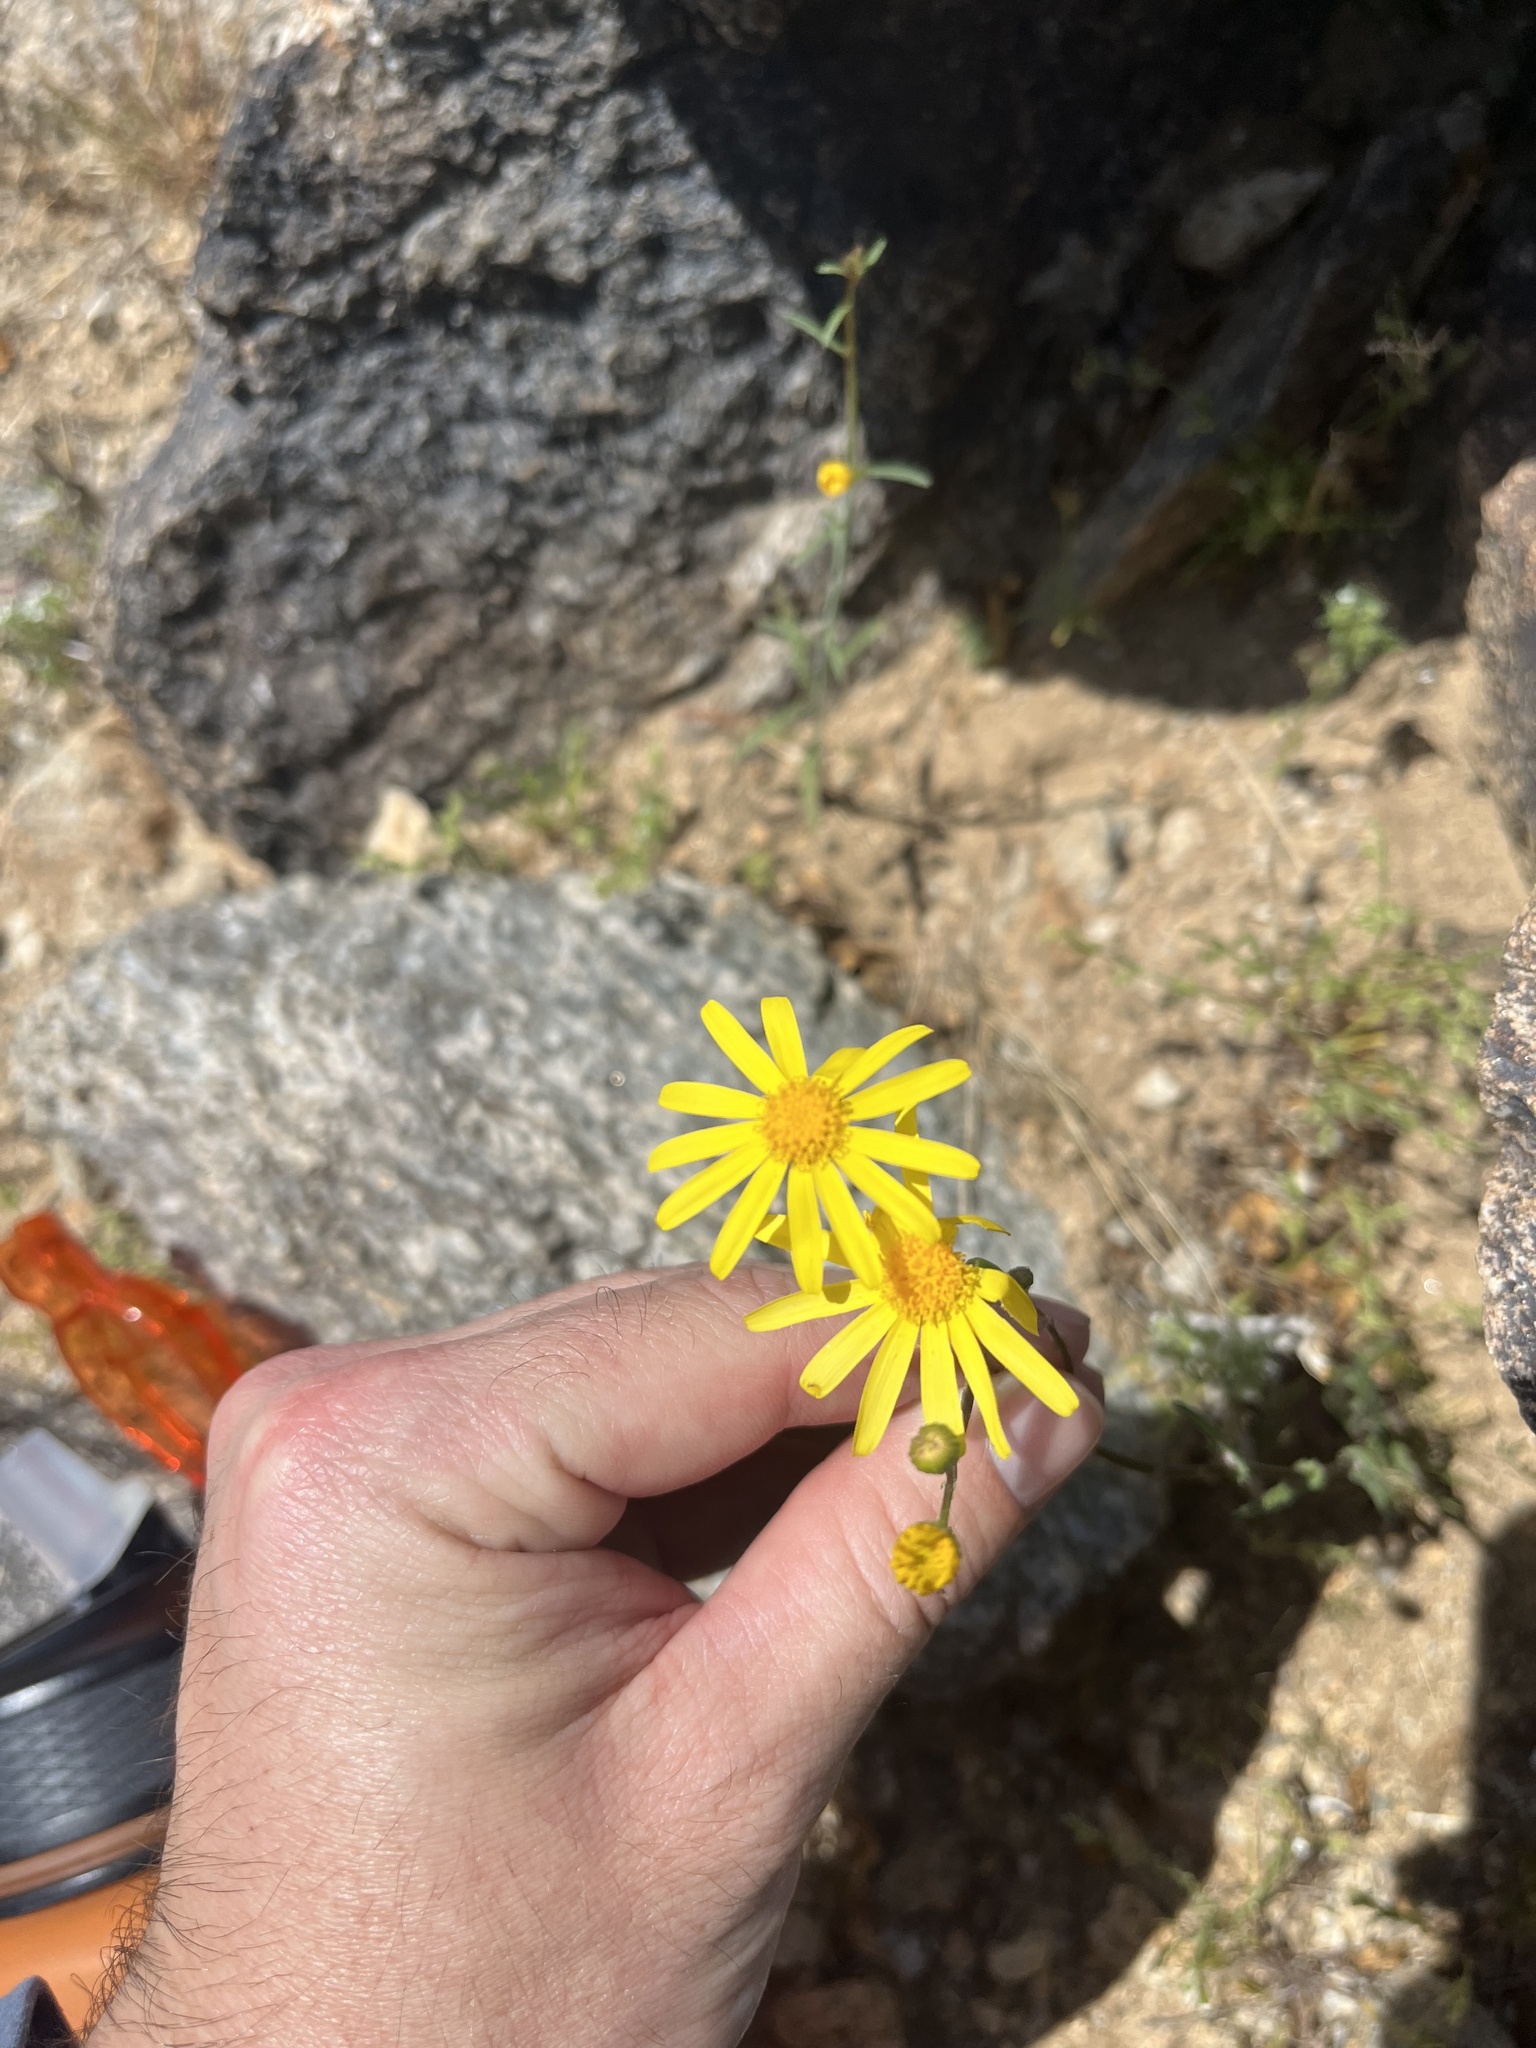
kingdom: Plantae
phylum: Tracheophyta
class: Magnoliopsida
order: Asterales
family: Asteraceae
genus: Senecio
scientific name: Senecio californicus
